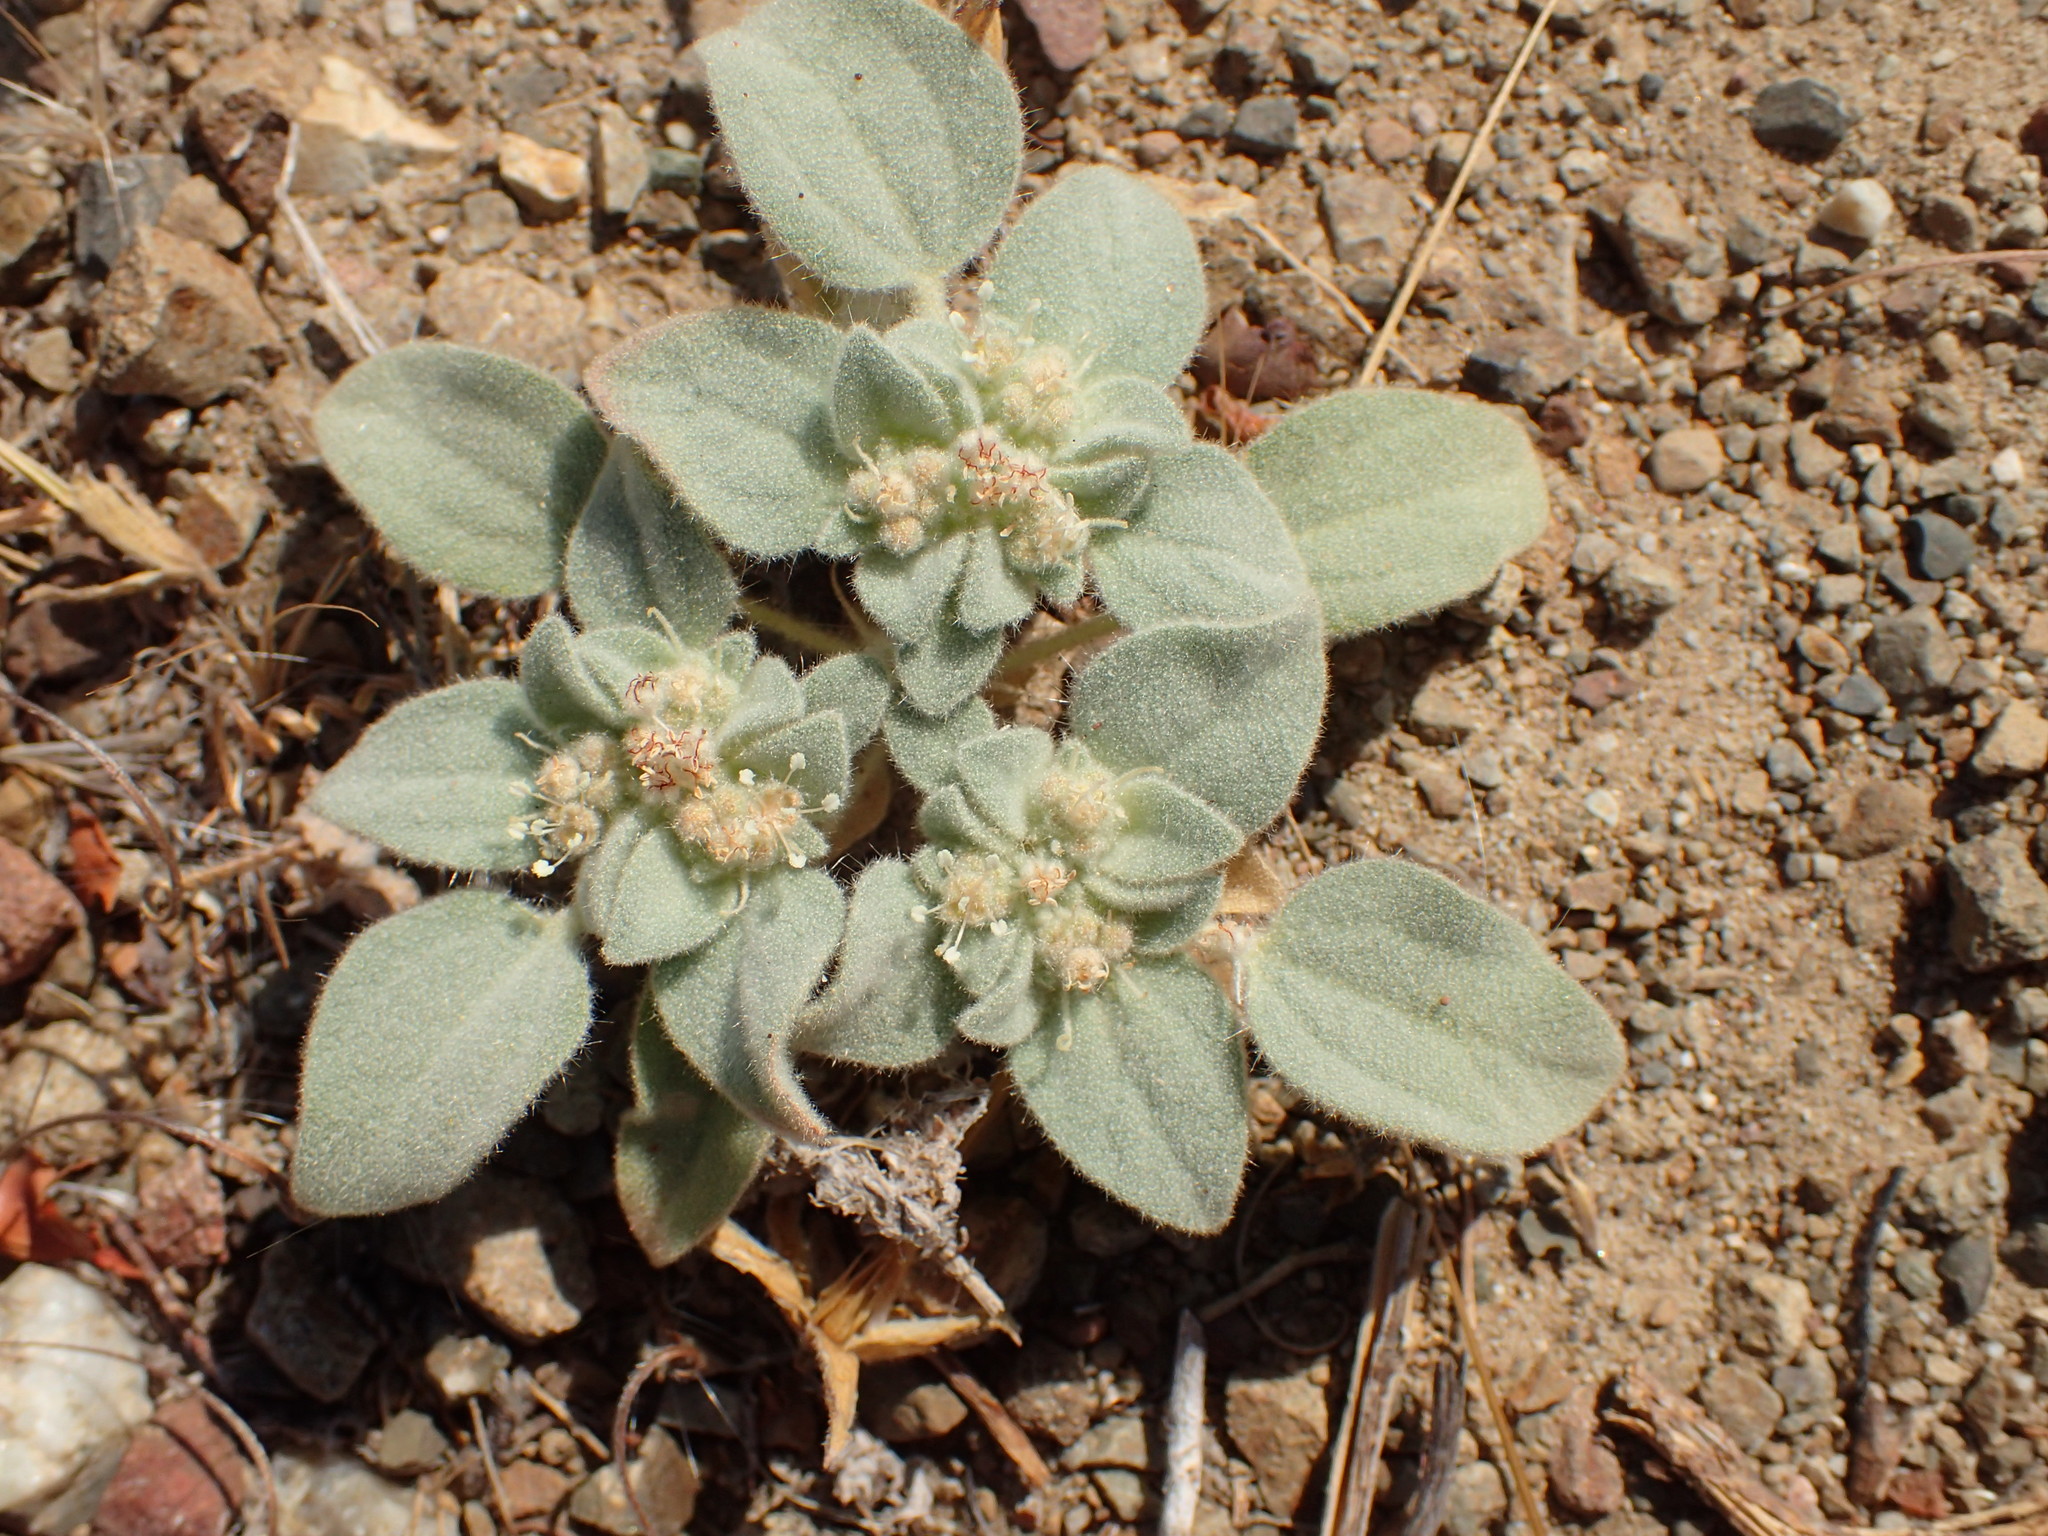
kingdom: Plantae
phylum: Tracheophyta
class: Magnoliopsida
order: Malpighiales
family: Euphorbiaceae
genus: Croton
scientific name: Croton setiger
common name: Dove weed
